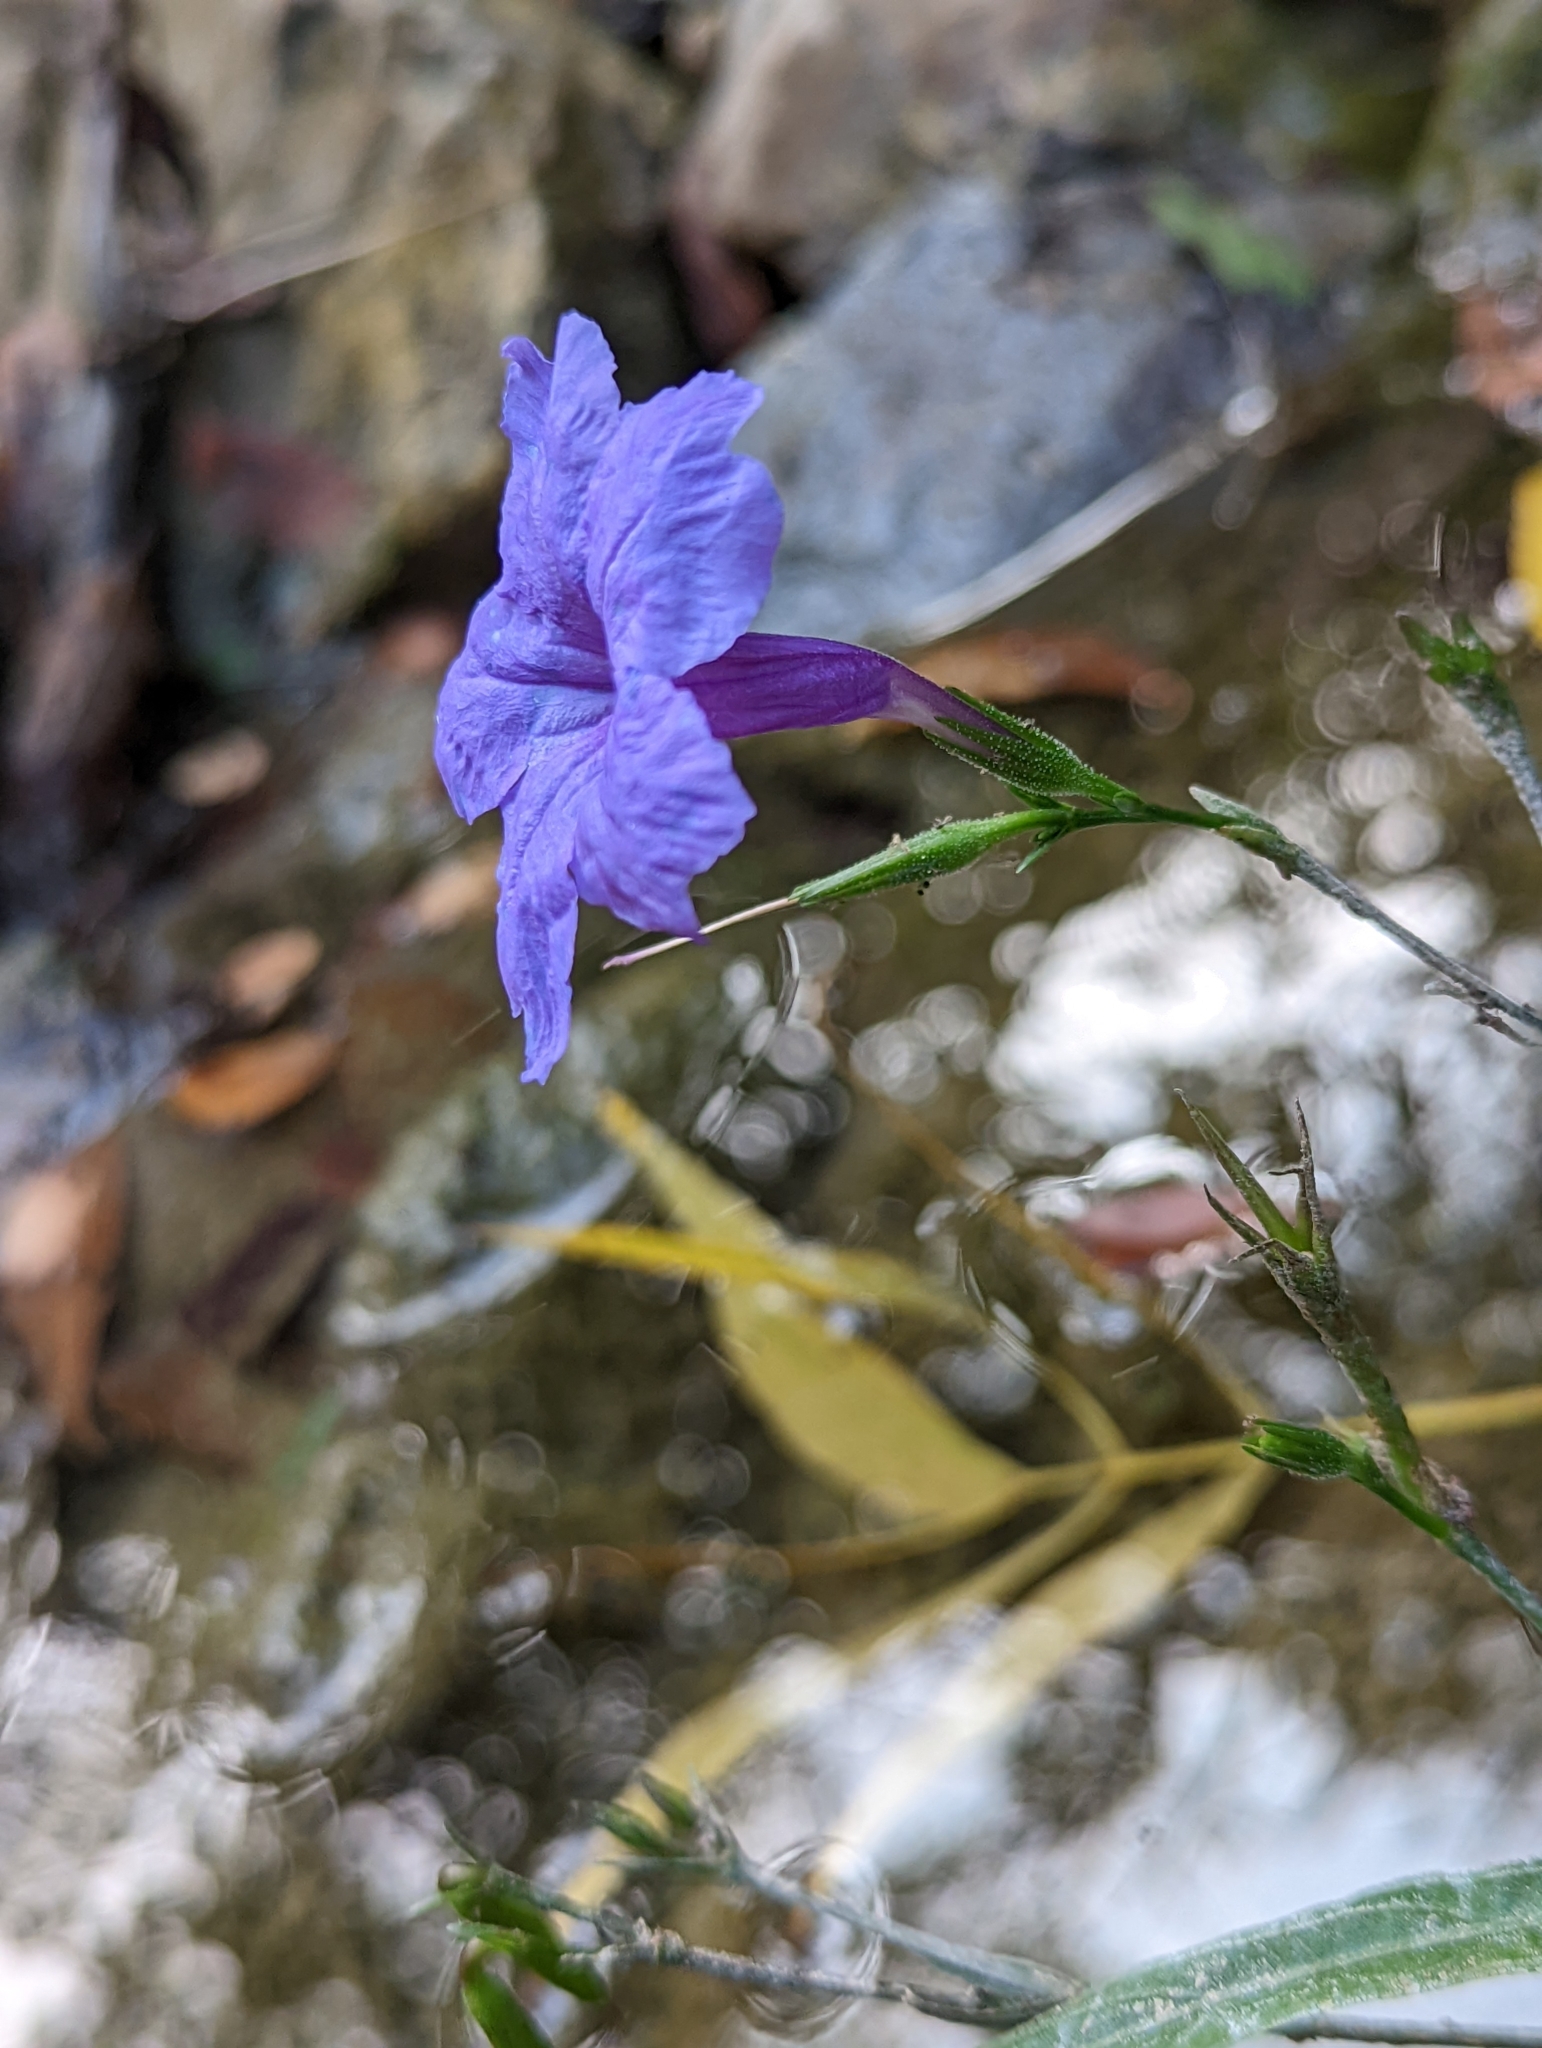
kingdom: Plantae
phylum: Tracheophyta
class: Magnoliopsida
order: Lamiales
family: Acanthaceae
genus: Ruellia
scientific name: Ruellia simplex
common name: Softseed wild petunia
